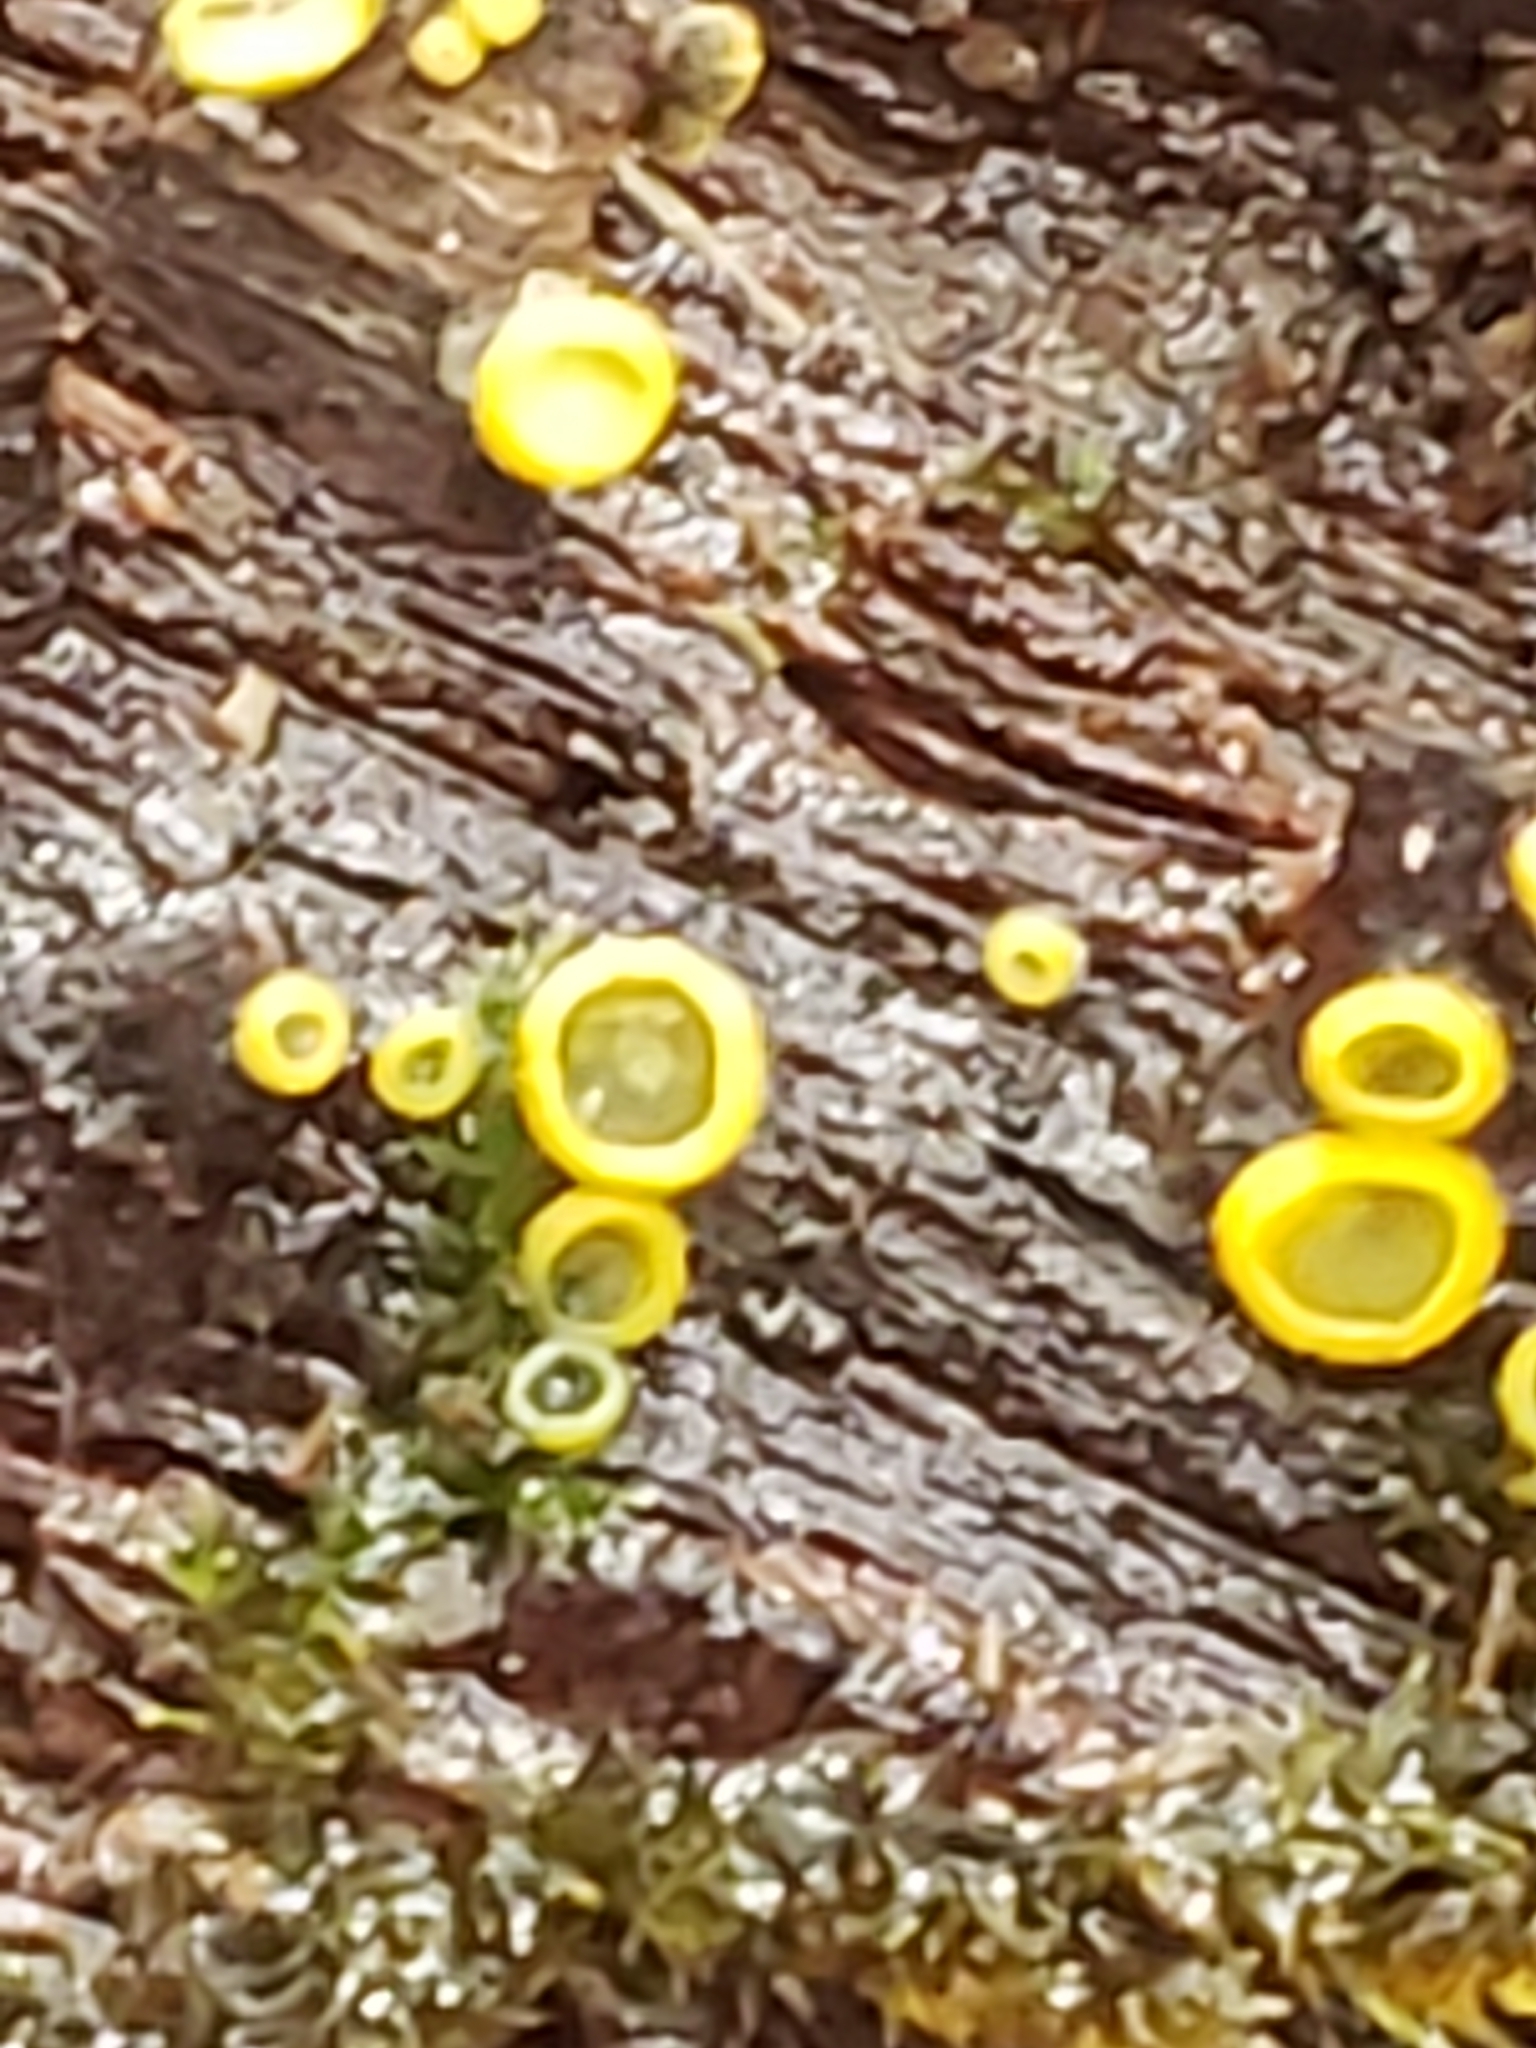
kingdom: Fungi
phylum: Ascomycota
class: Leotiomycetes
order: Helotiales
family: Chlorospleniaceae
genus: Chlorosplenium
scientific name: Chlorosplenium chlora
